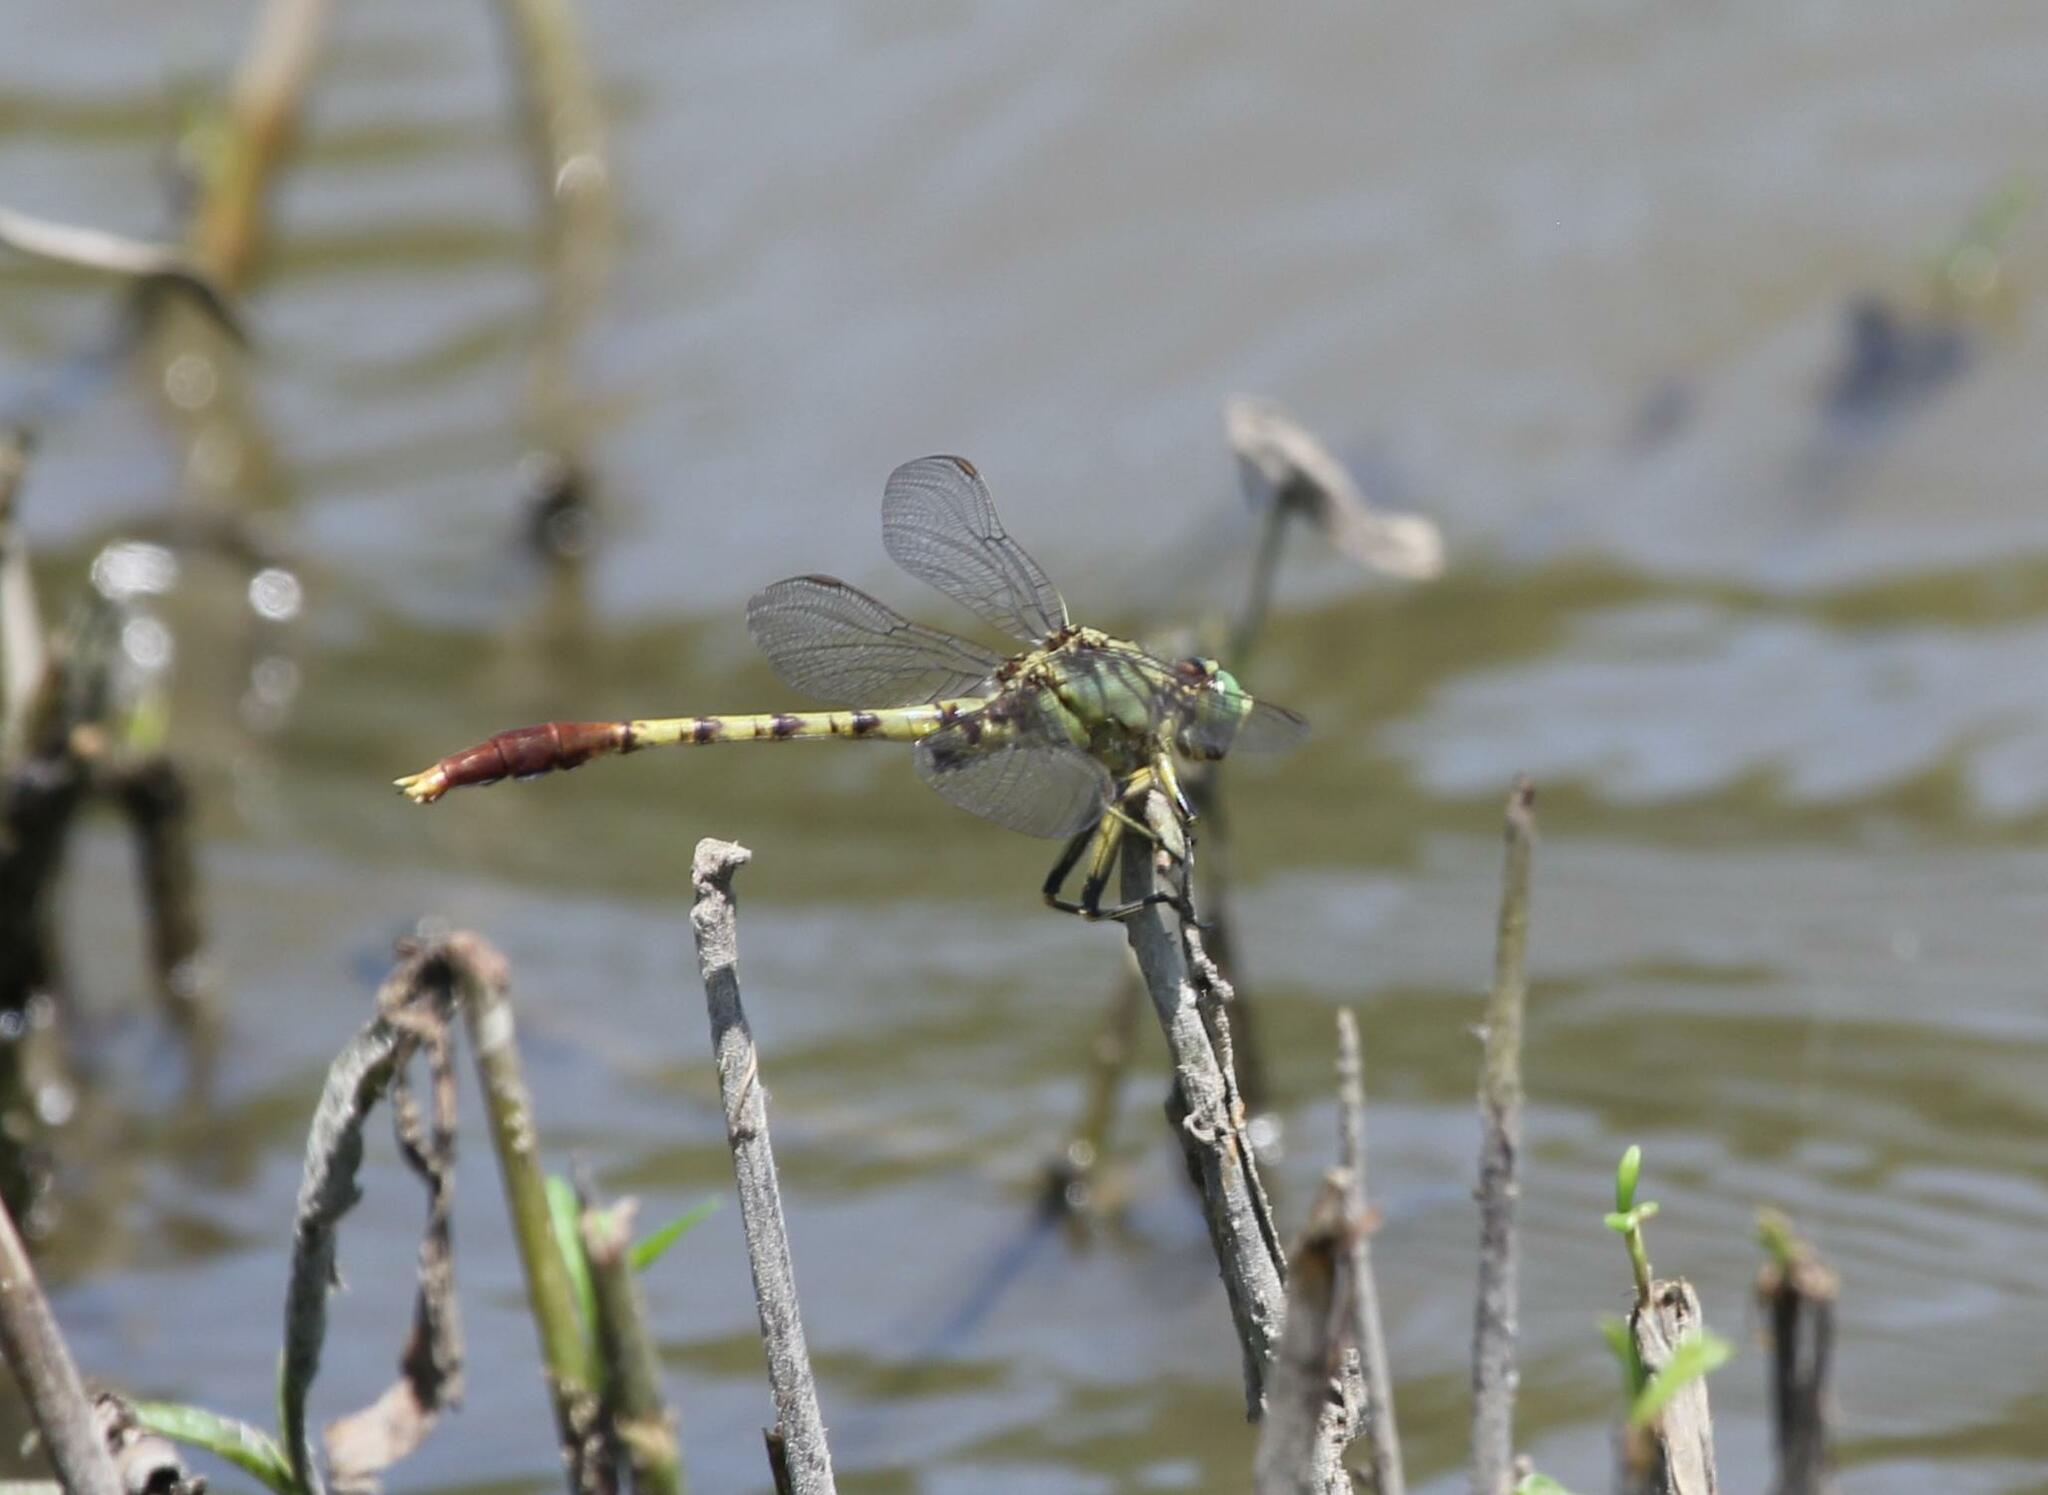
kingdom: Animalia
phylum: Arthropoda
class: Insecta
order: Odonata
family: Gomphidae
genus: Arigomphus
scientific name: Arigomphus submedianus
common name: Jade clubtail
